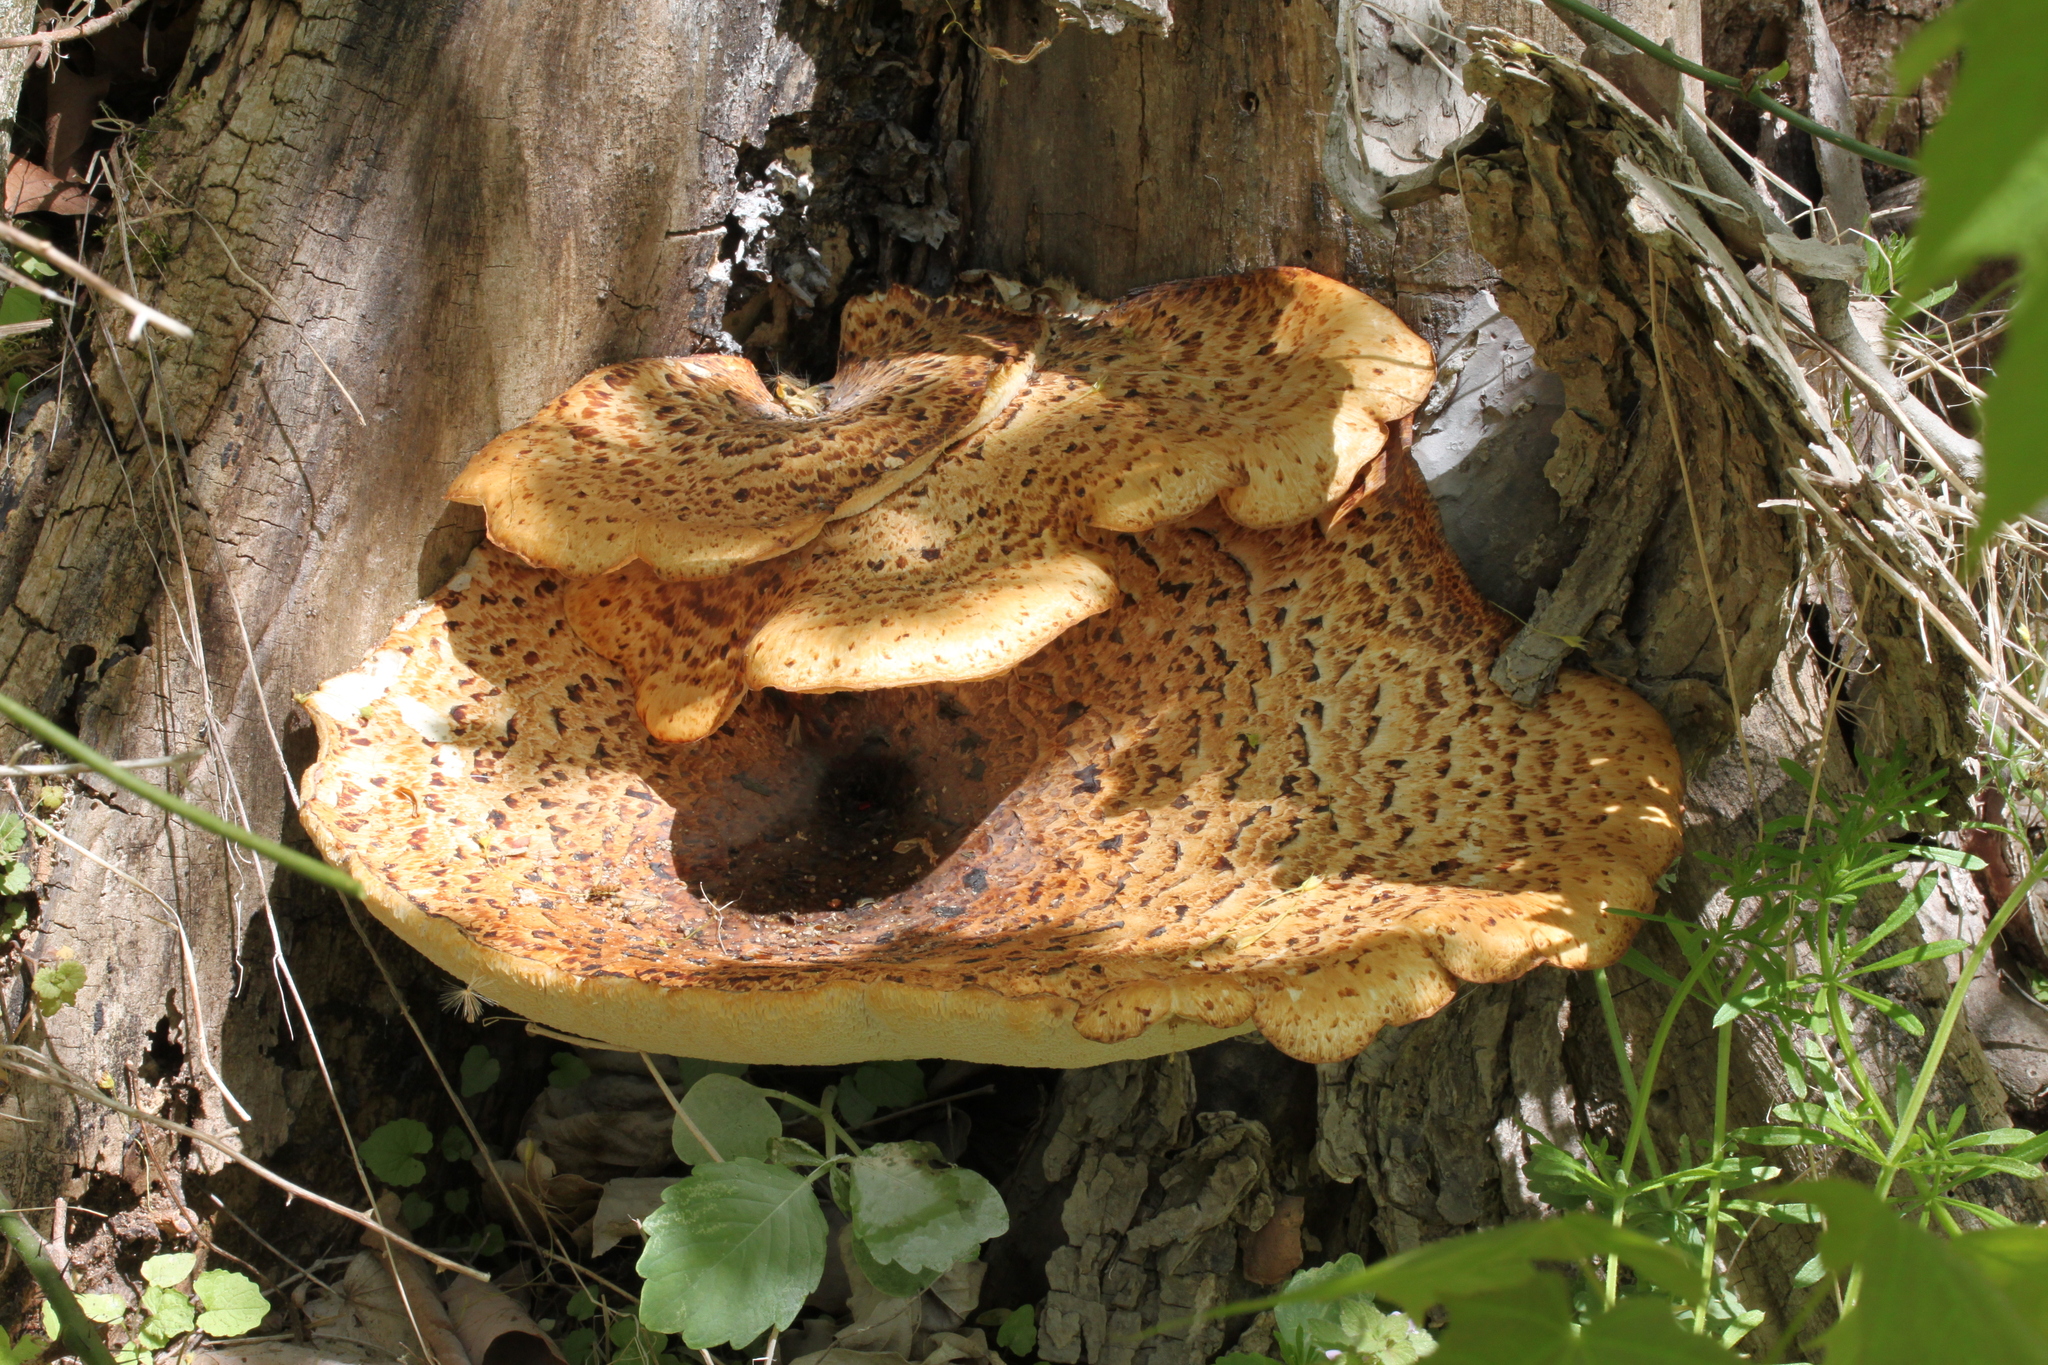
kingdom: Fungi
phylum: Basidiomycota
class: Agaricomycetes
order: Polyporales
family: Polyporaceae
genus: Cerioporus
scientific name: Cerioporus squamosus
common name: Dryad's saddle
